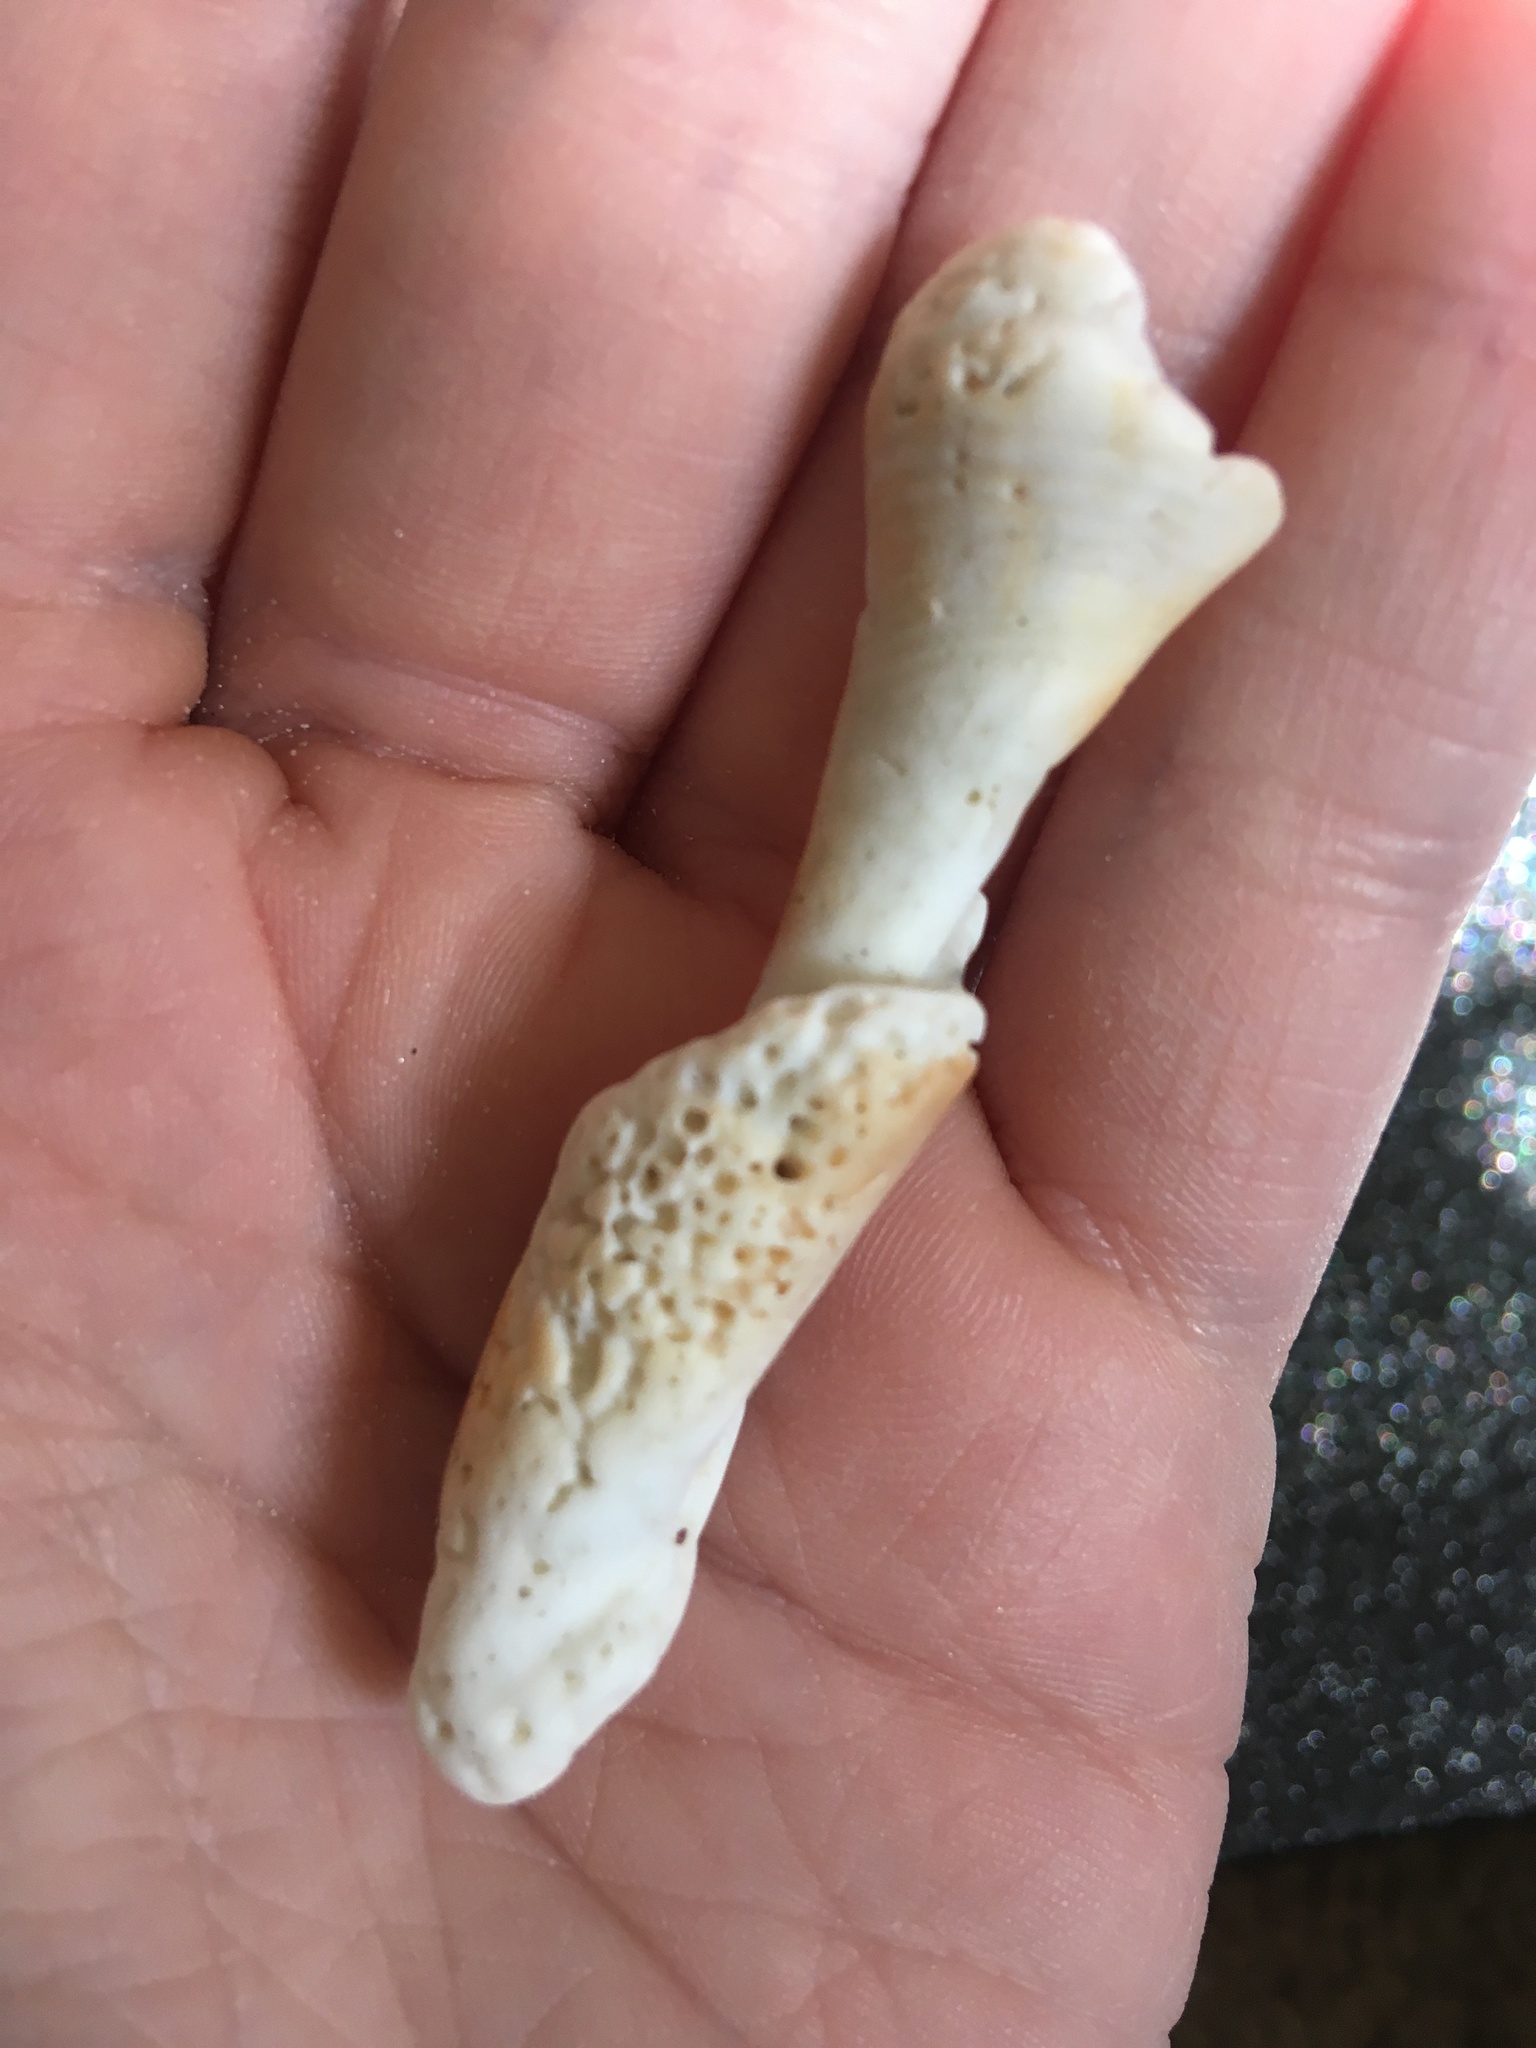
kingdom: Animalia
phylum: Mollusca
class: Gastropoda
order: Littorinimorpha
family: Strombidae
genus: Strombus
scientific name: Strombus alatus
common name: Florida fighting conch
